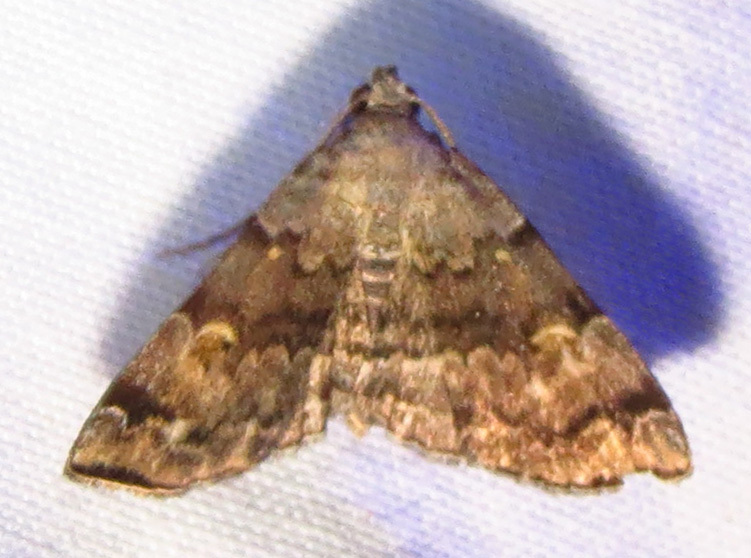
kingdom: Animalia
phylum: Arthropoda
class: Insecta
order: Lepidoptera
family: Erebidae
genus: Idia
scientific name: Idia americalis
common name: American idia moth
